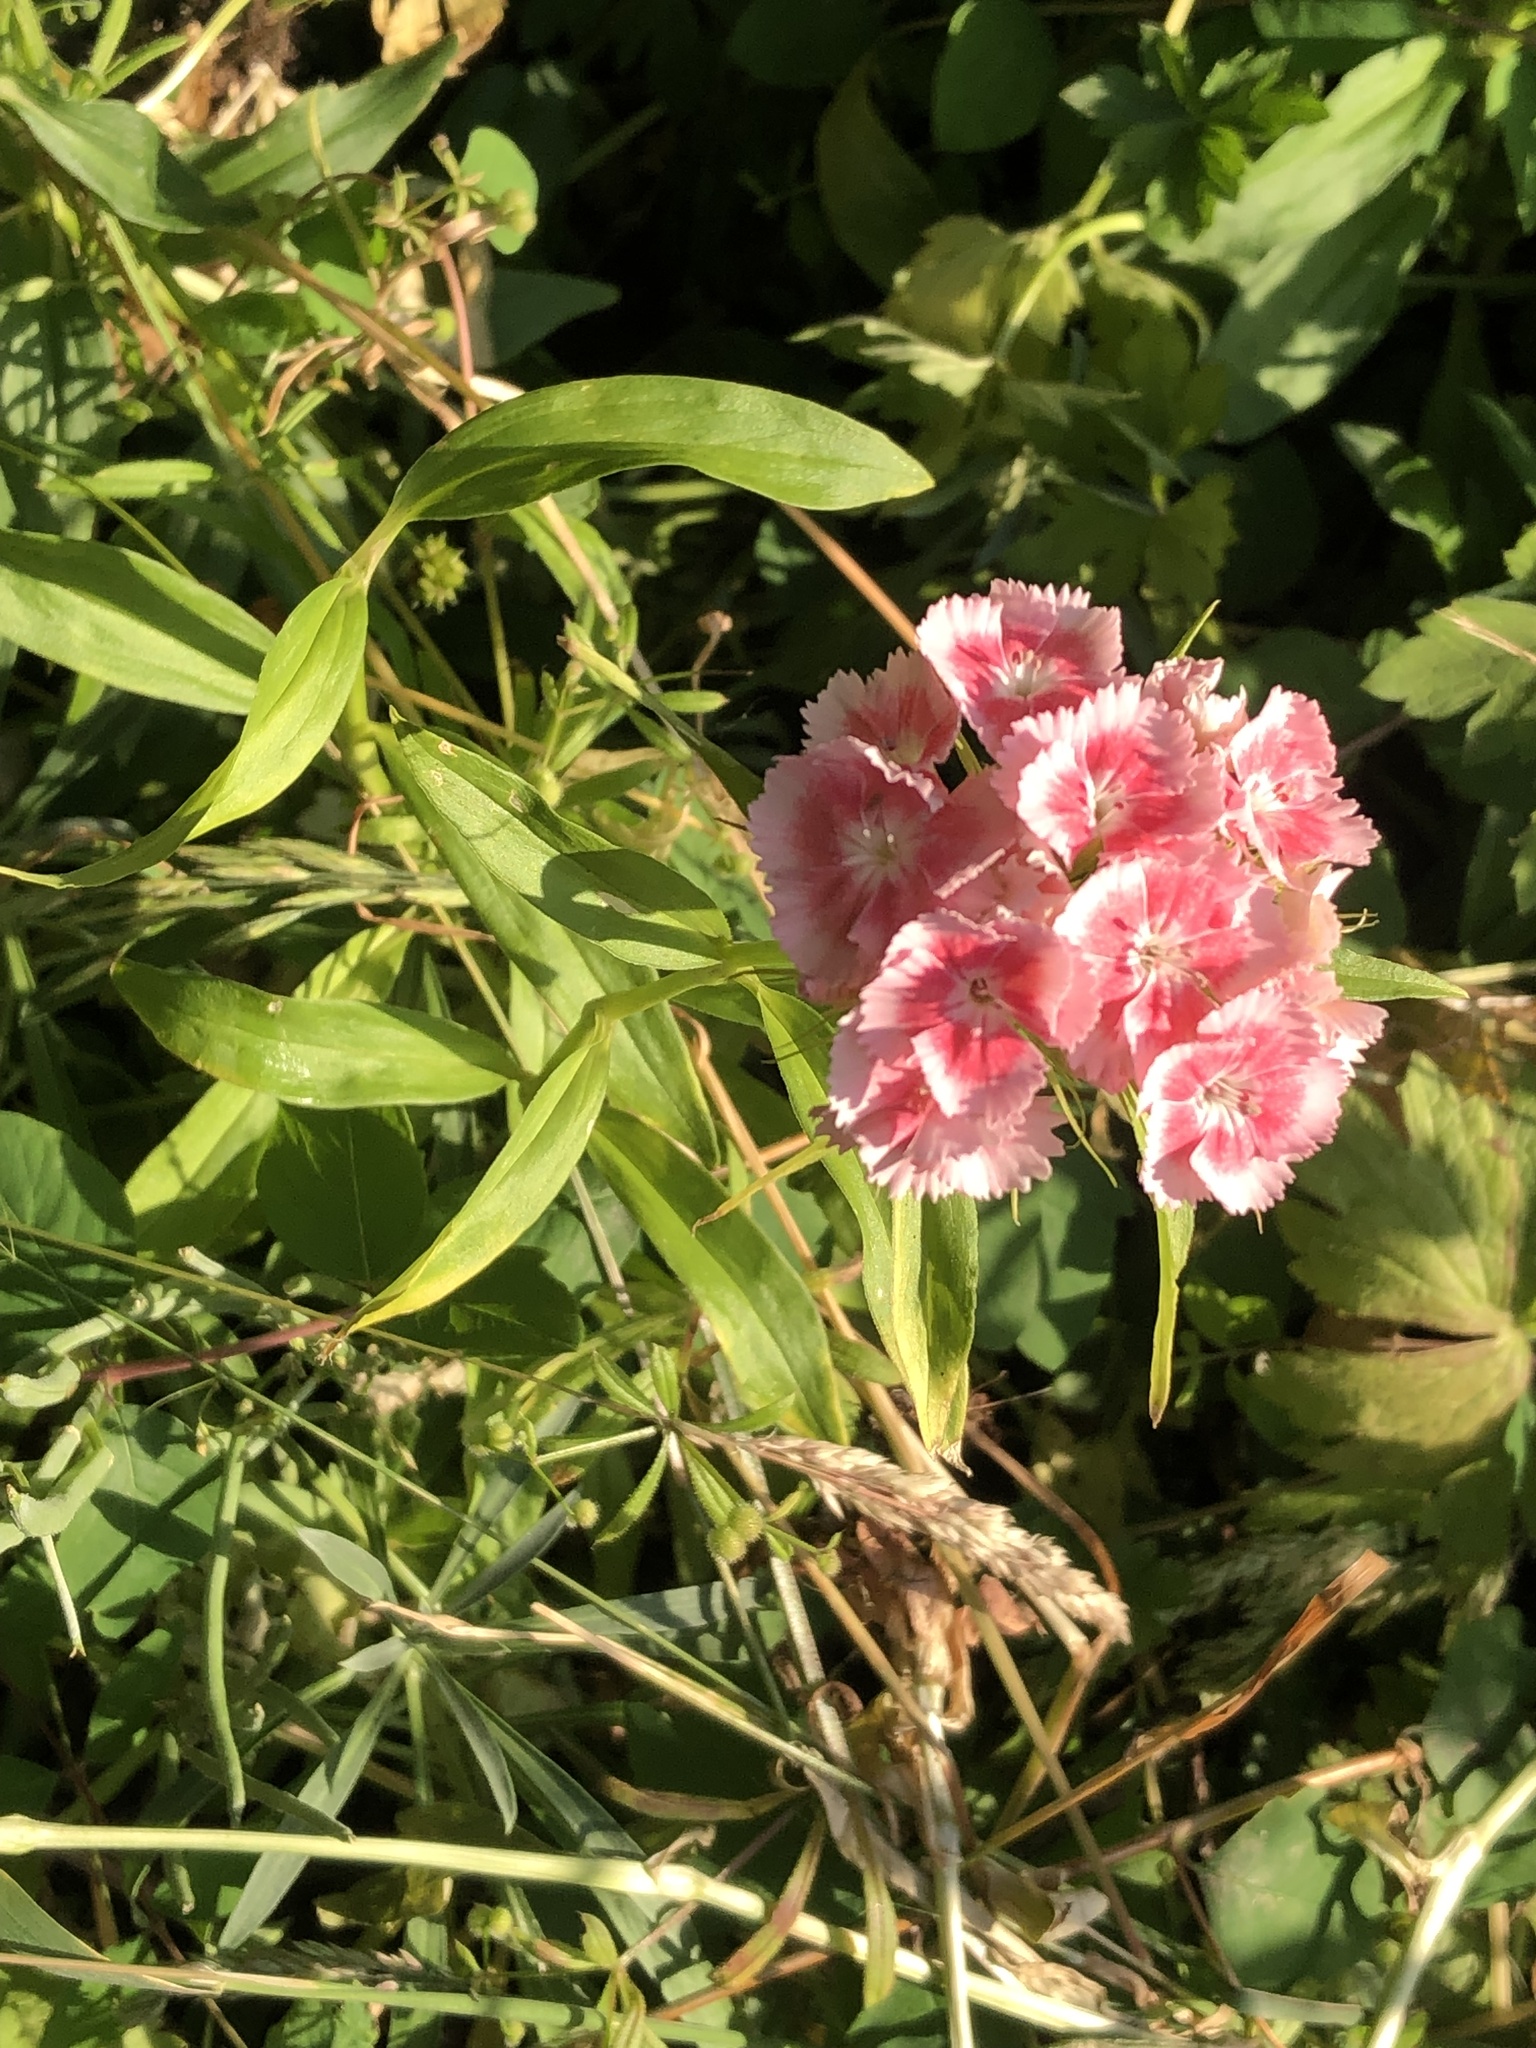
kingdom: Plantae
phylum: Tracheophyta
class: Magnoliopsida
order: Caryophyllales
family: Caryophyllaceae
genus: Dianthus
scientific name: Dianthus barbatus
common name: Sweet-william
